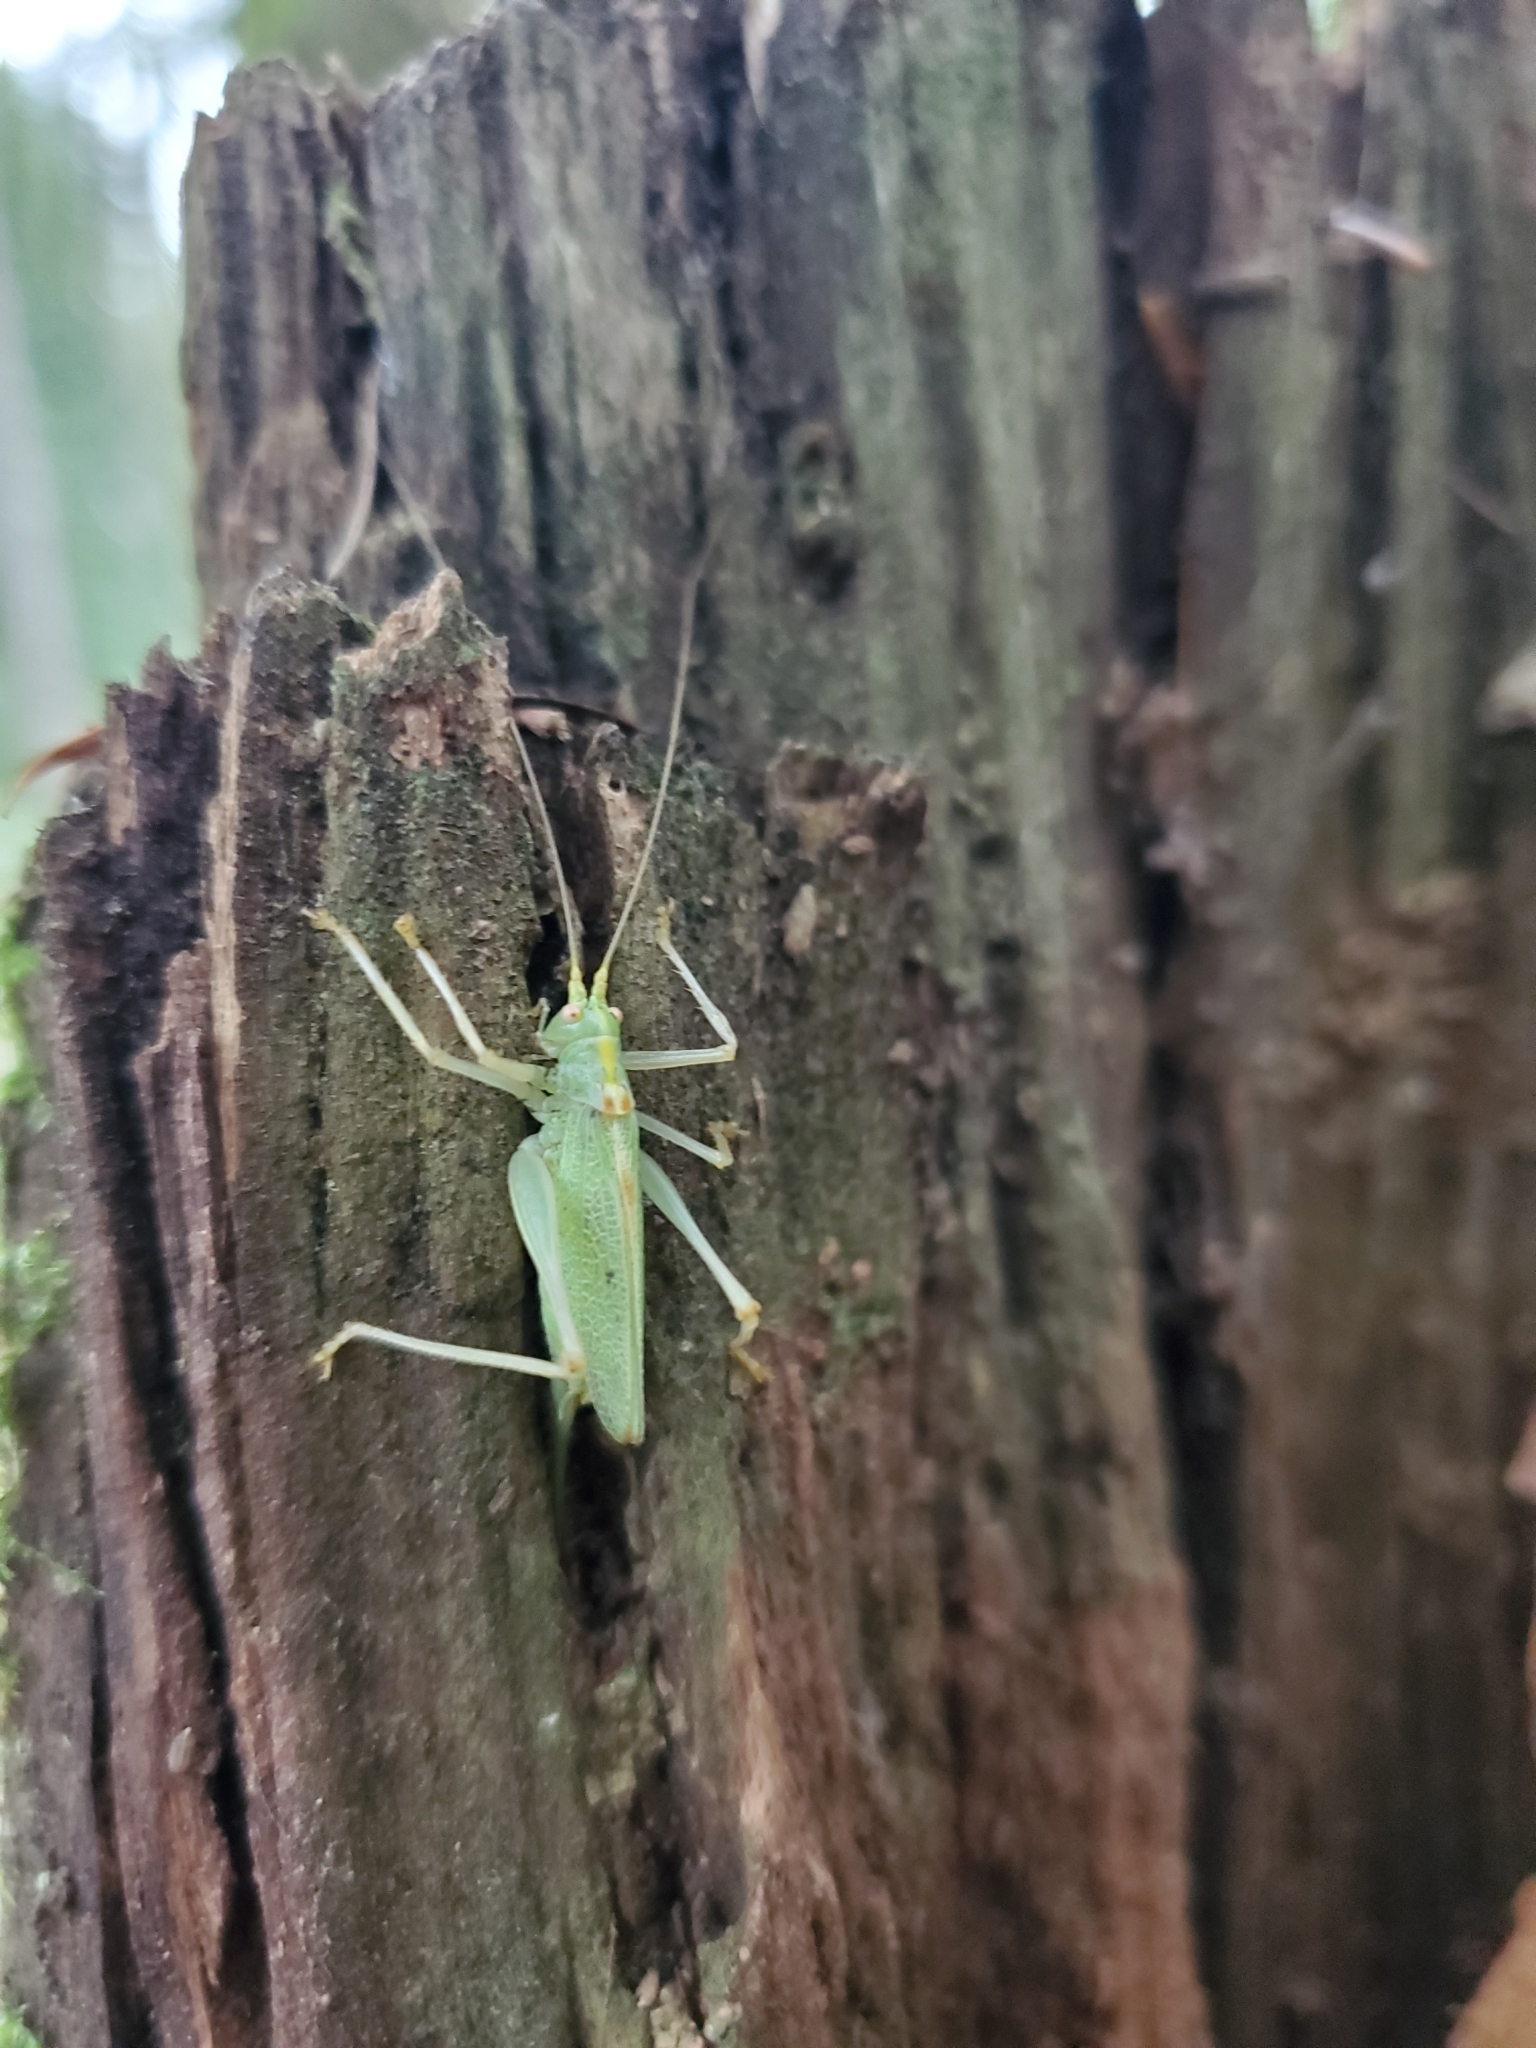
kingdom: Animalia
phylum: Arthropoda
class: Insecta
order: Orthoptera
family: Tettigoniidae
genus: Meconema
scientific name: Meconema thalassinum
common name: Oak bush-cricket
